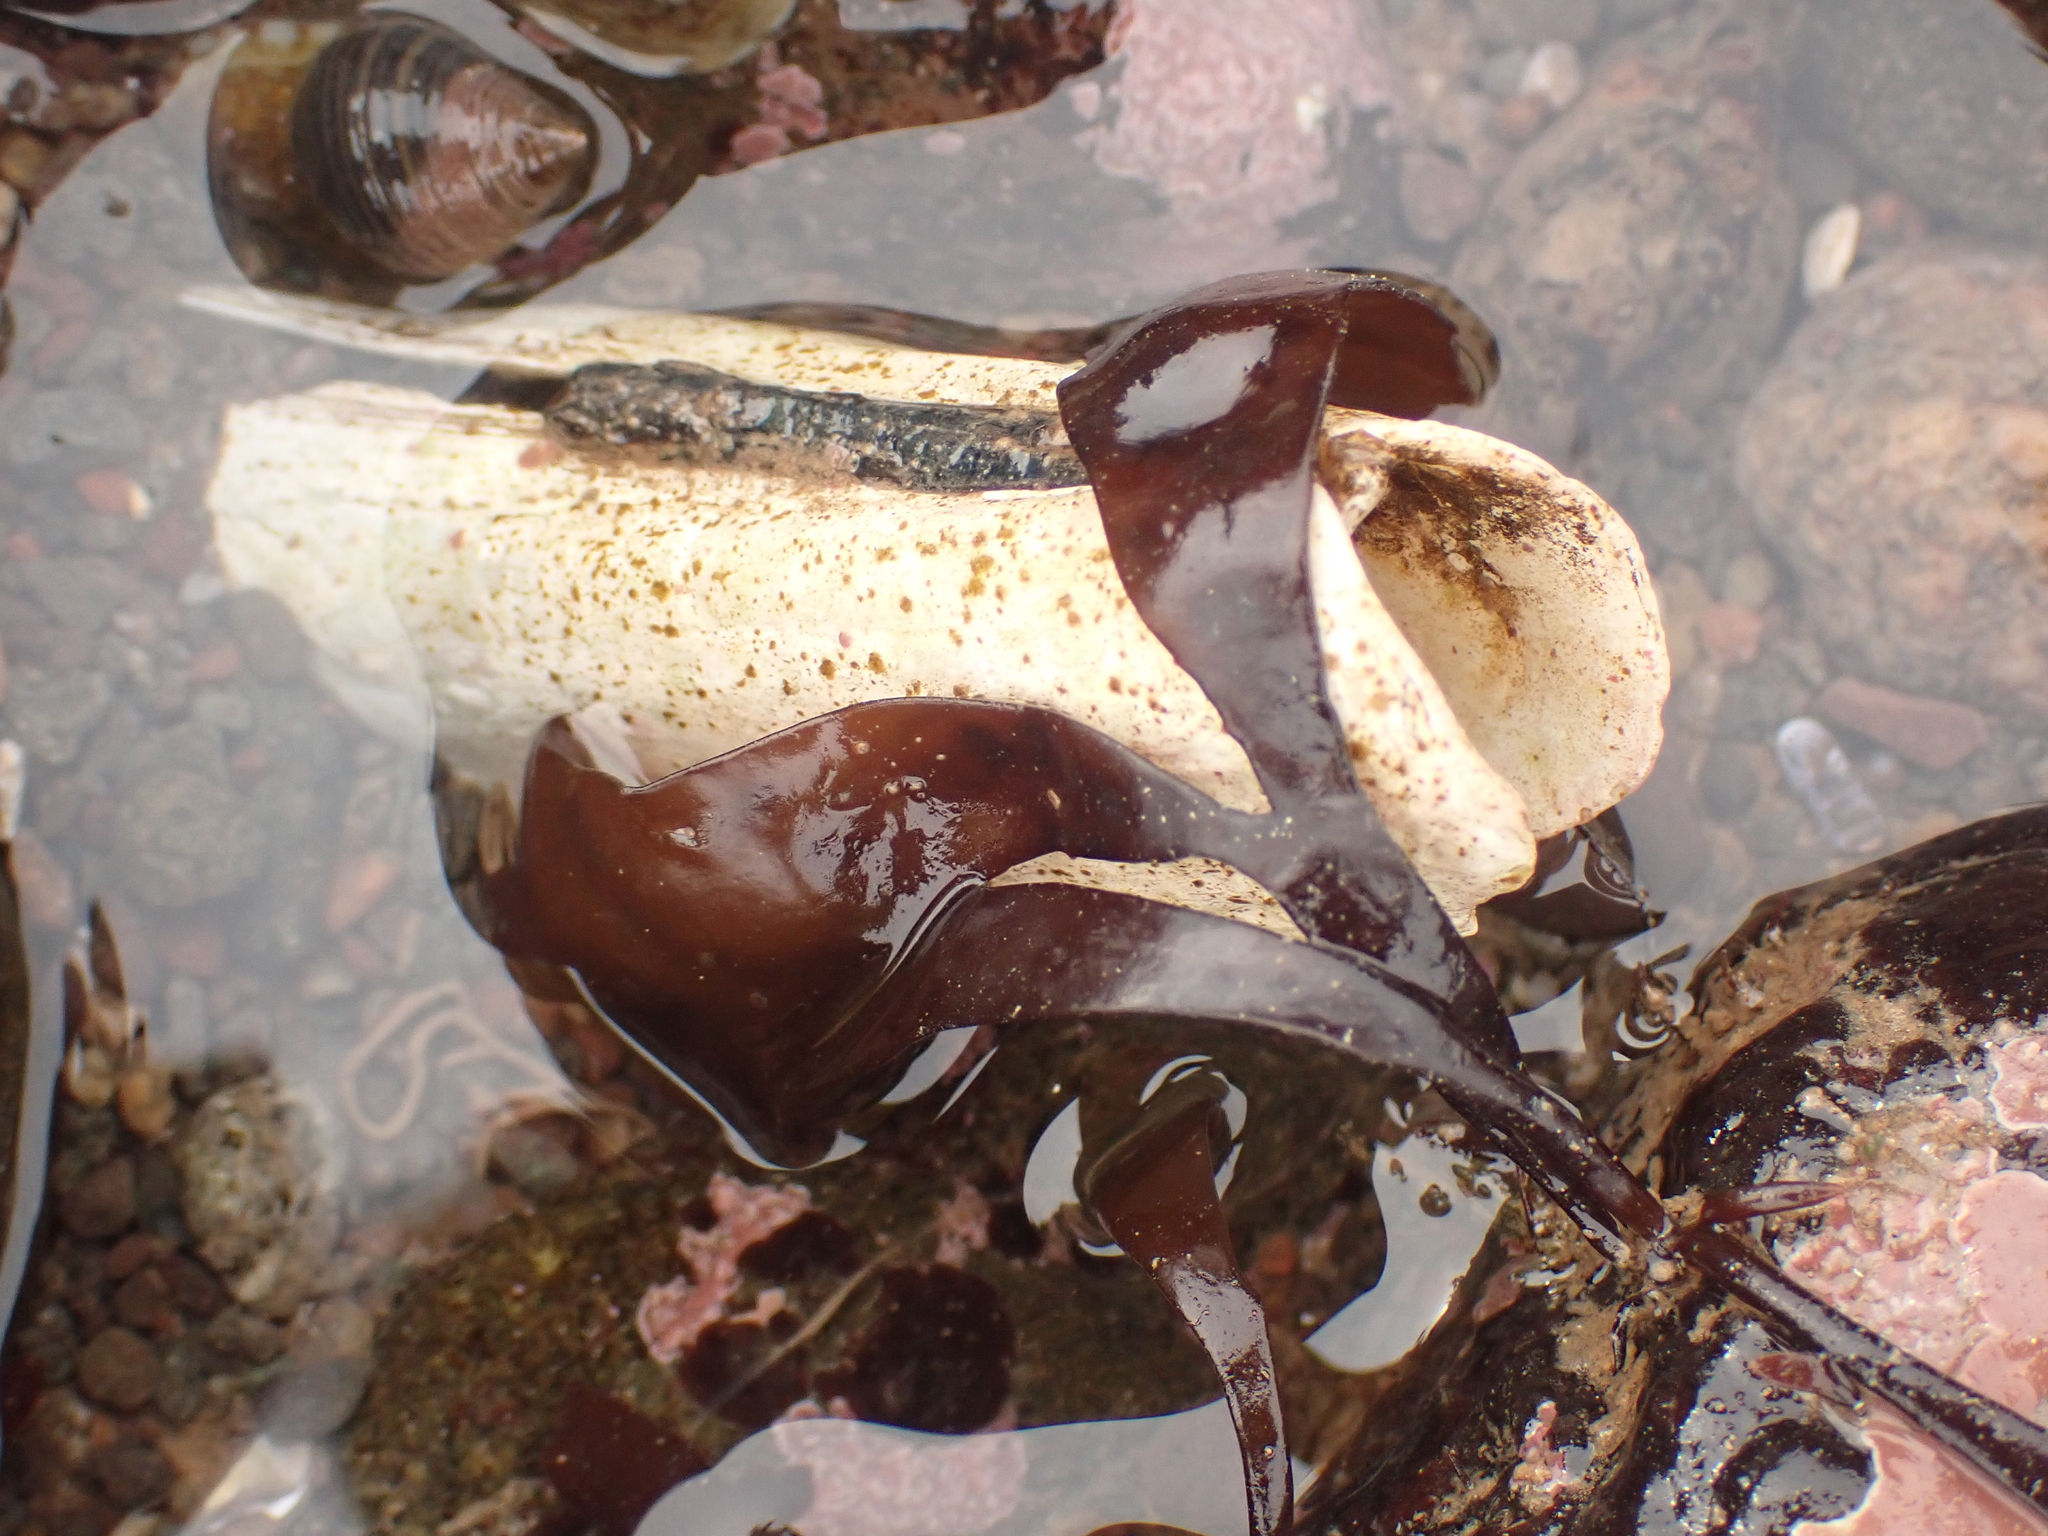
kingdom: Animalia
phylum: Mollusca
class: Bivalvia
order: Adapedonta
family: Pharidae
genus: Ensis
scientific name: Ensis leei
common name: American jack knife clam
